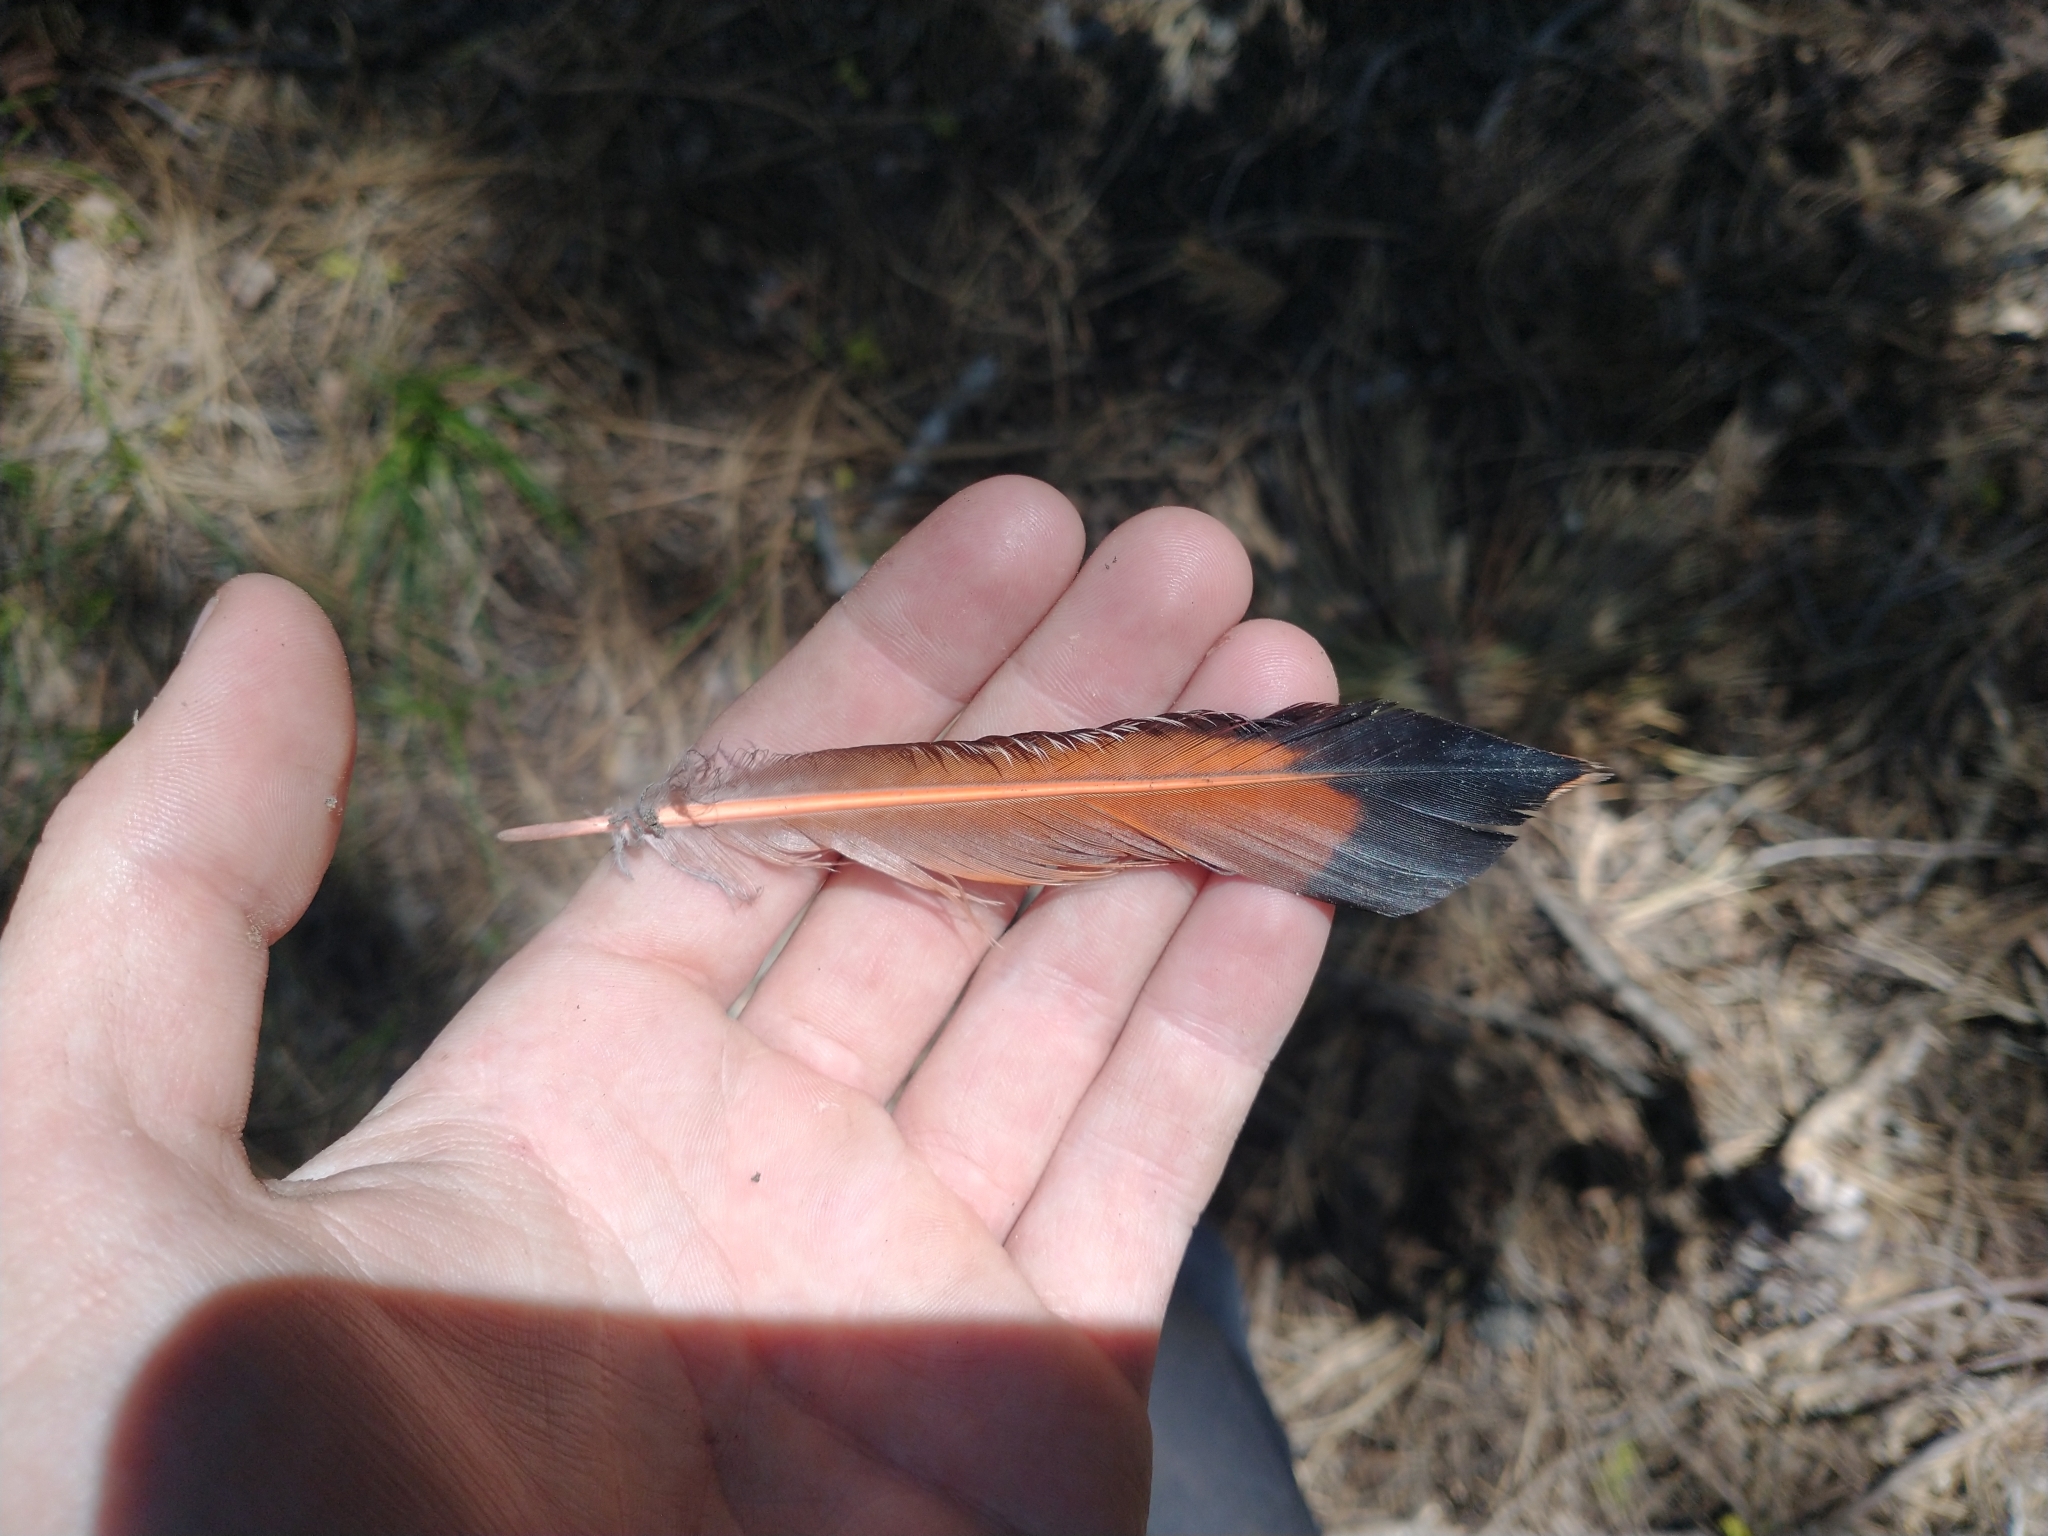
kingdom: Animalia
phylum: Chordata
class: Aves
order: Piciformes
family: Picidae
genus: Colaptes
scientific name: Colaptes auratus
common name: Northern flicker
